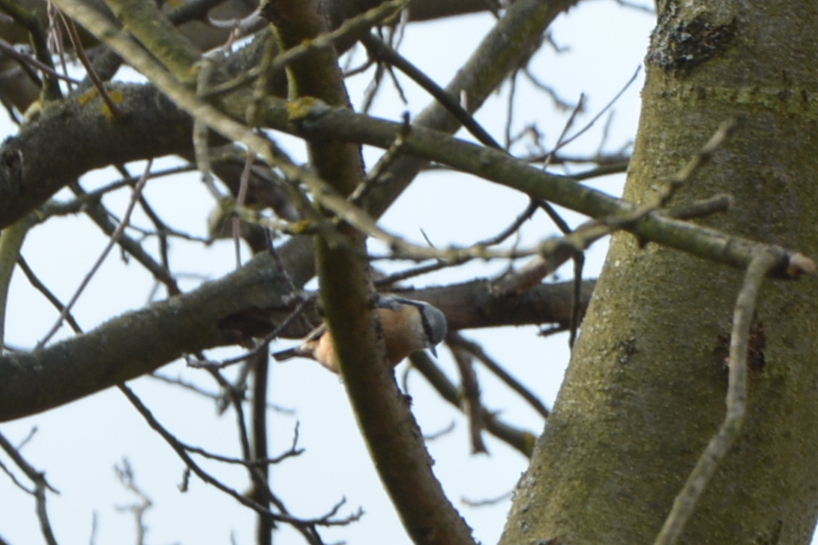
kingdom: Animalia
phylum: Chordata
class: Aves
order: Passeriformes
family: Sittidae
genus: Sitta
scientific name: Sitta europaea
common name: Eurasian nuthatch
